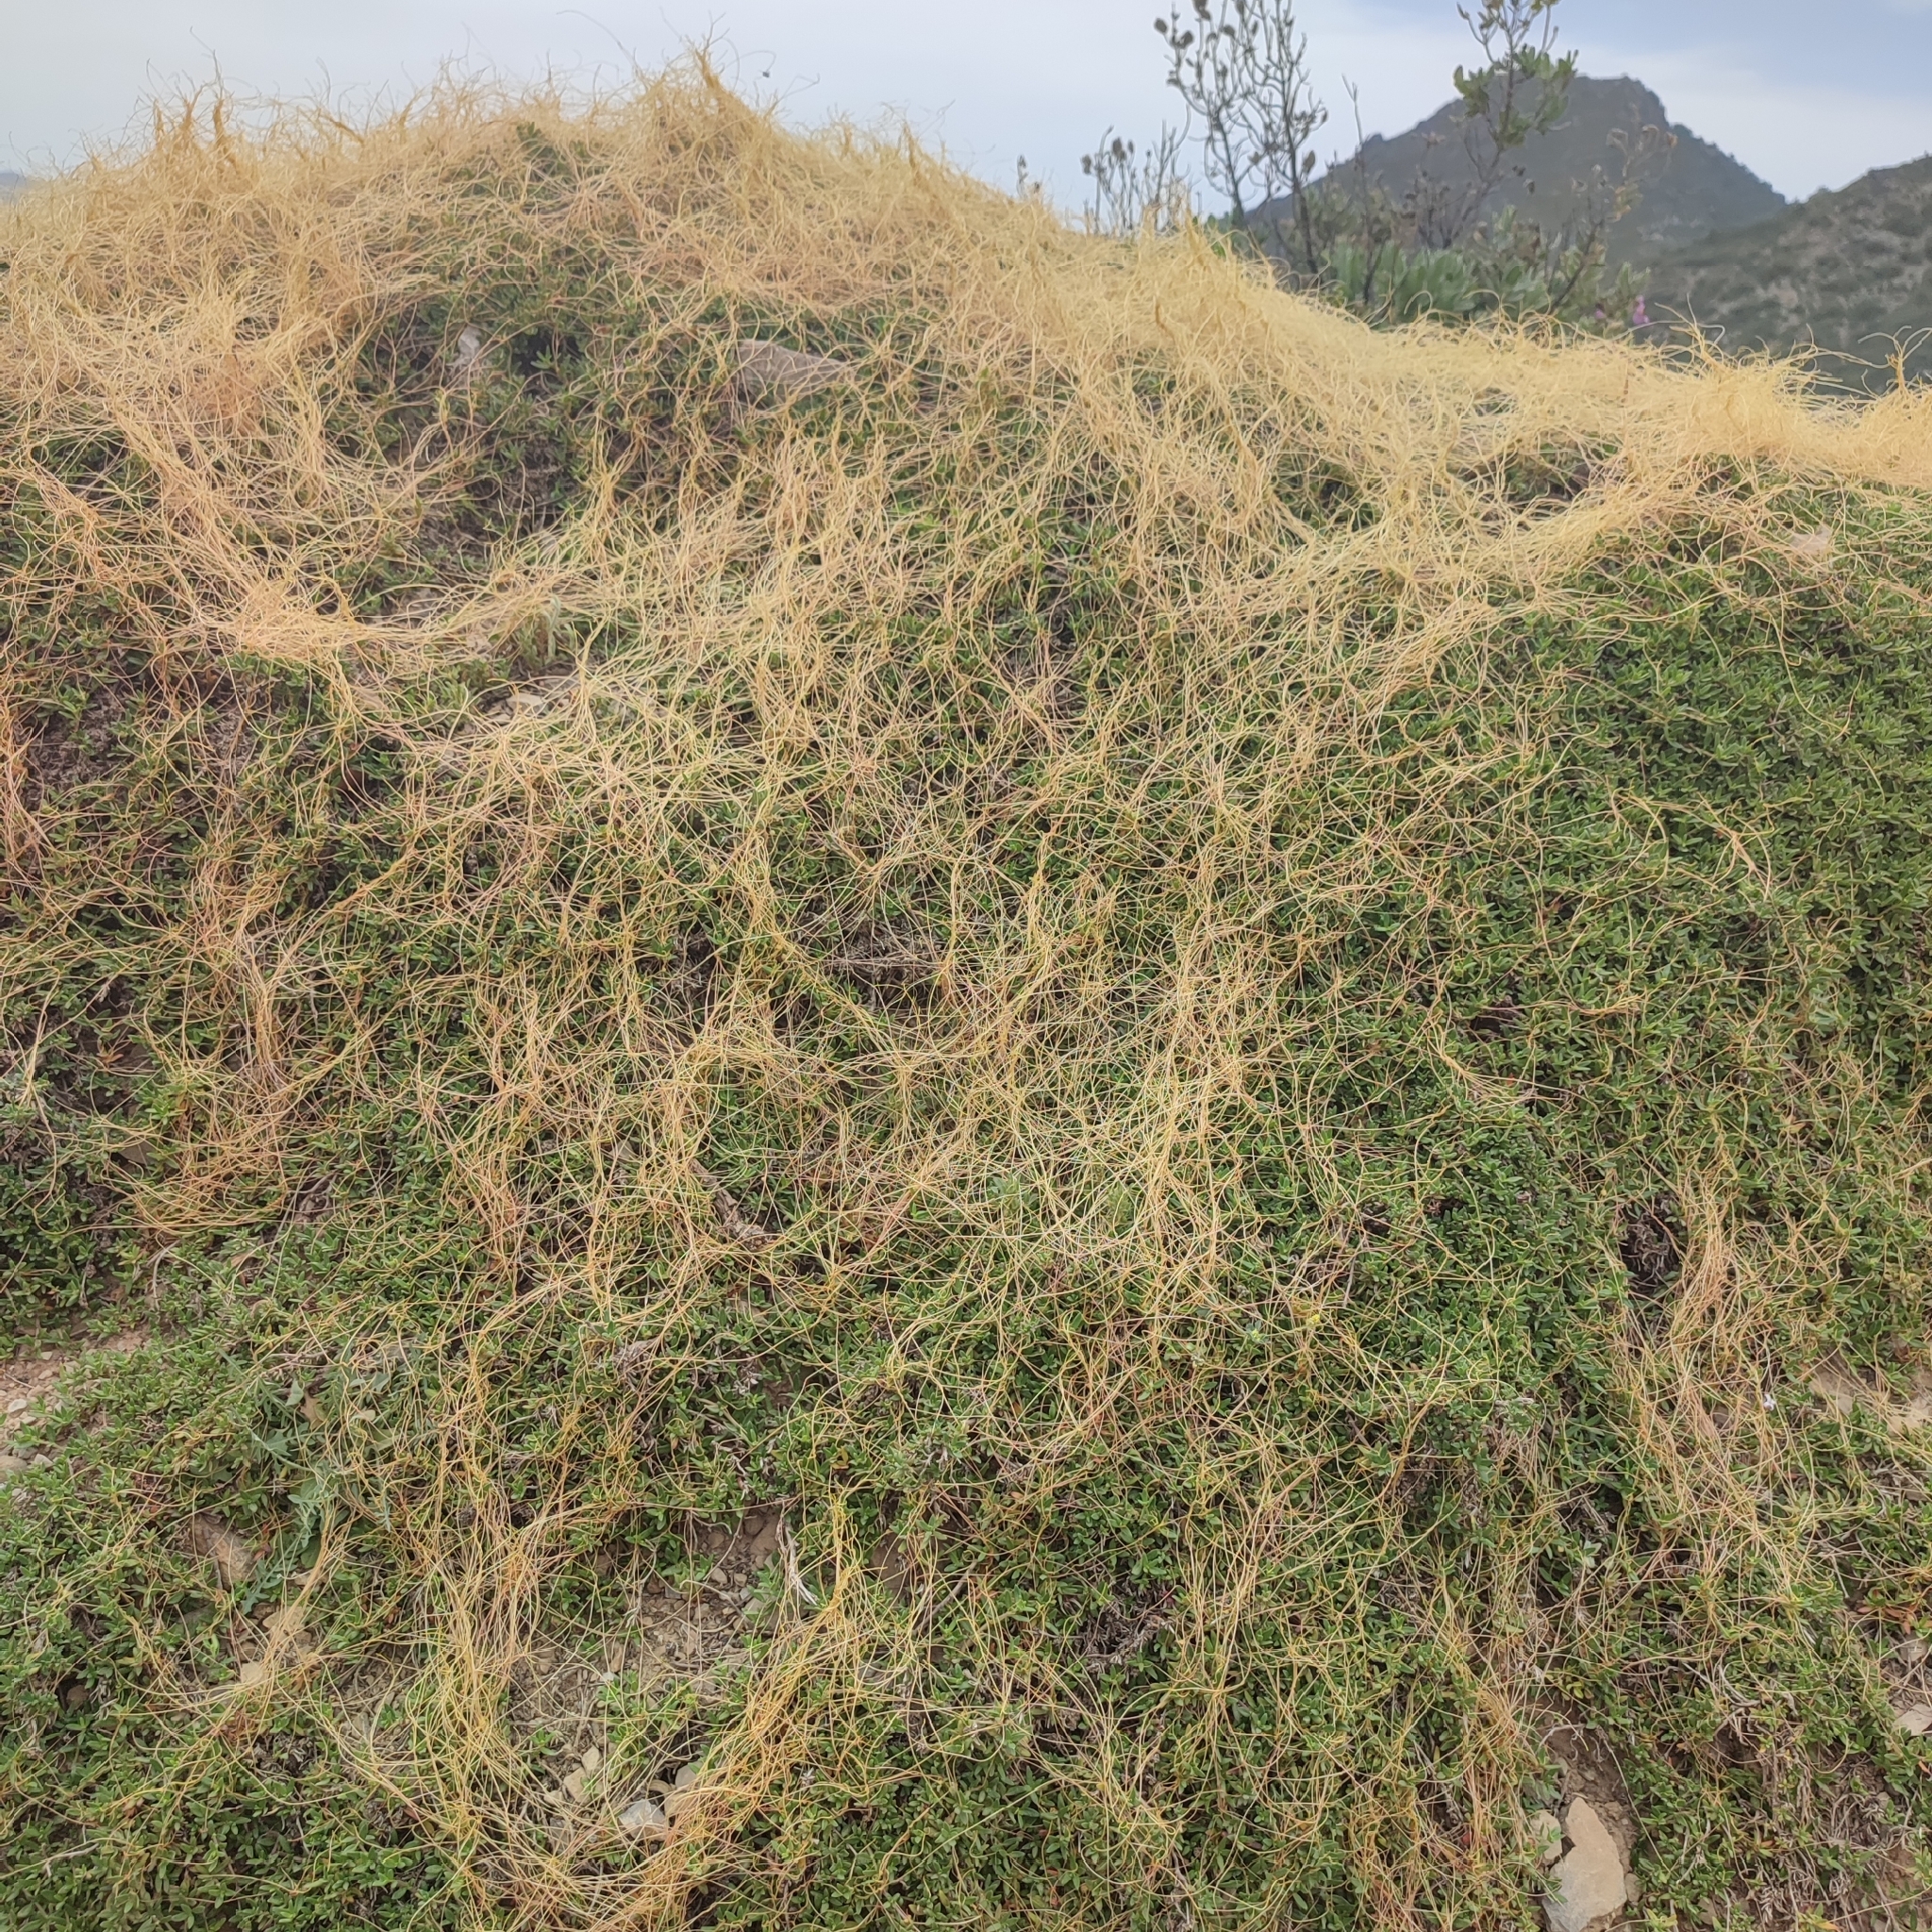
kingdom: Plantae
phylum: Tracheophyta
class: Magnoliopsida
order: Solanales
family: Convolvulaceae
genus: Cuscuta
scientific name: Cuscuta
